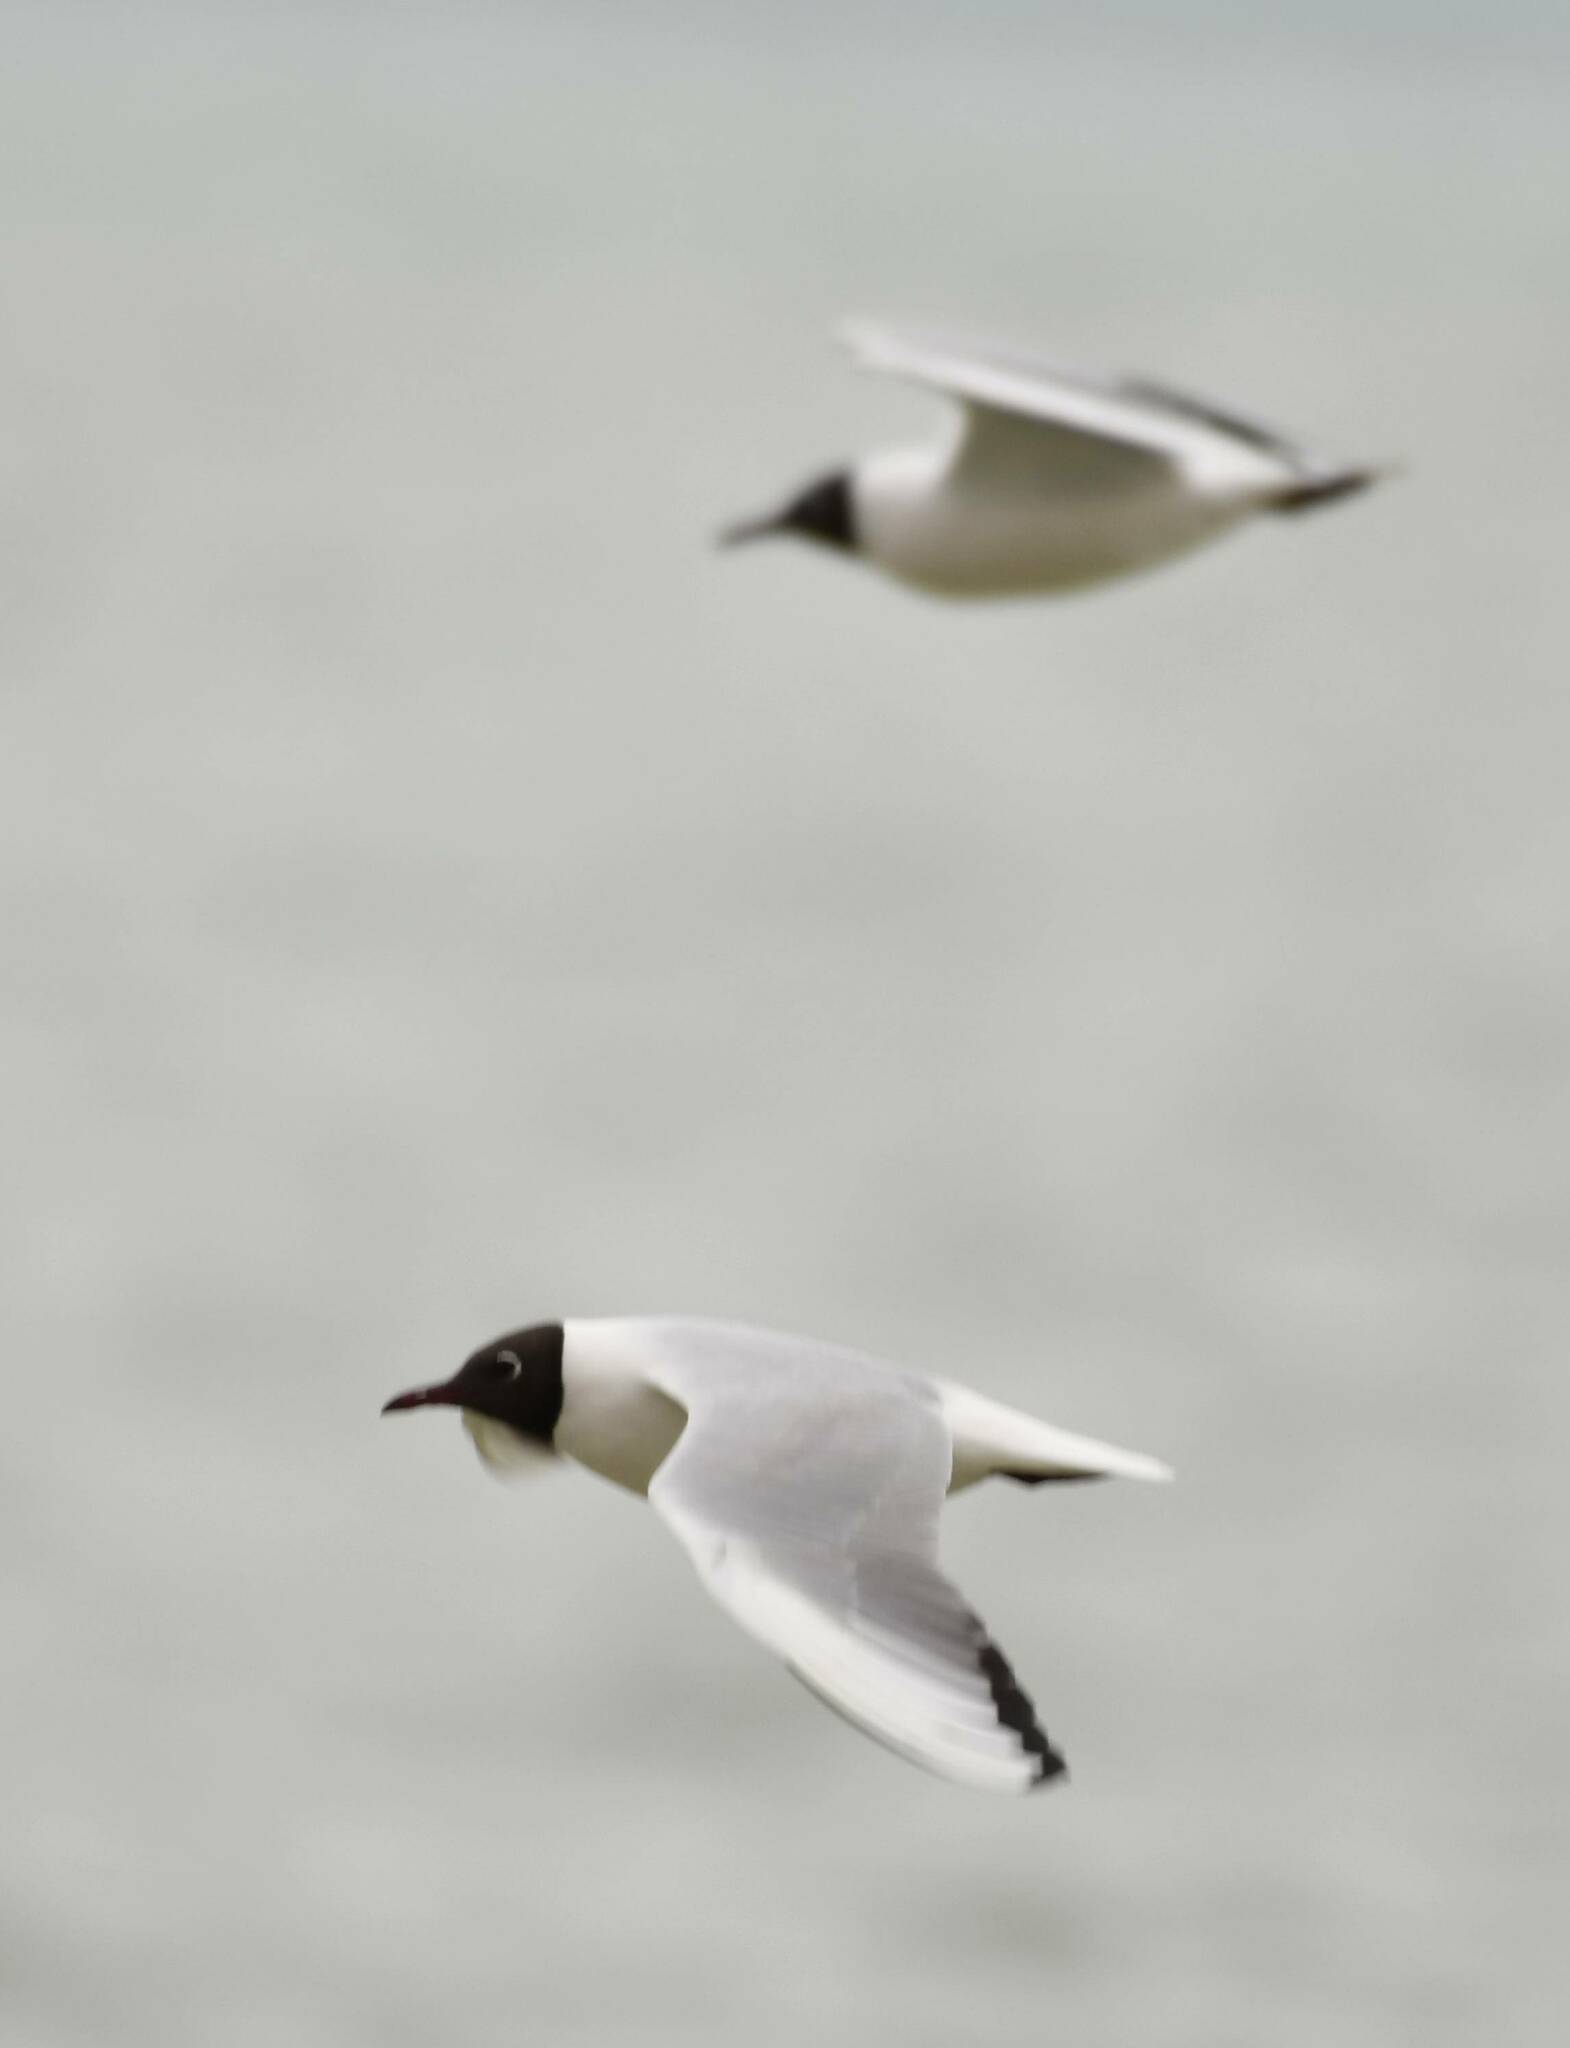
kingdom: Animalia
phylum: Chordata
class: Aves
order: Charadriiformes
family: Laridae
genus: Chroicocephalus
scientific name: Chroicocephalus ridibundus
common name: Black-headed gull
